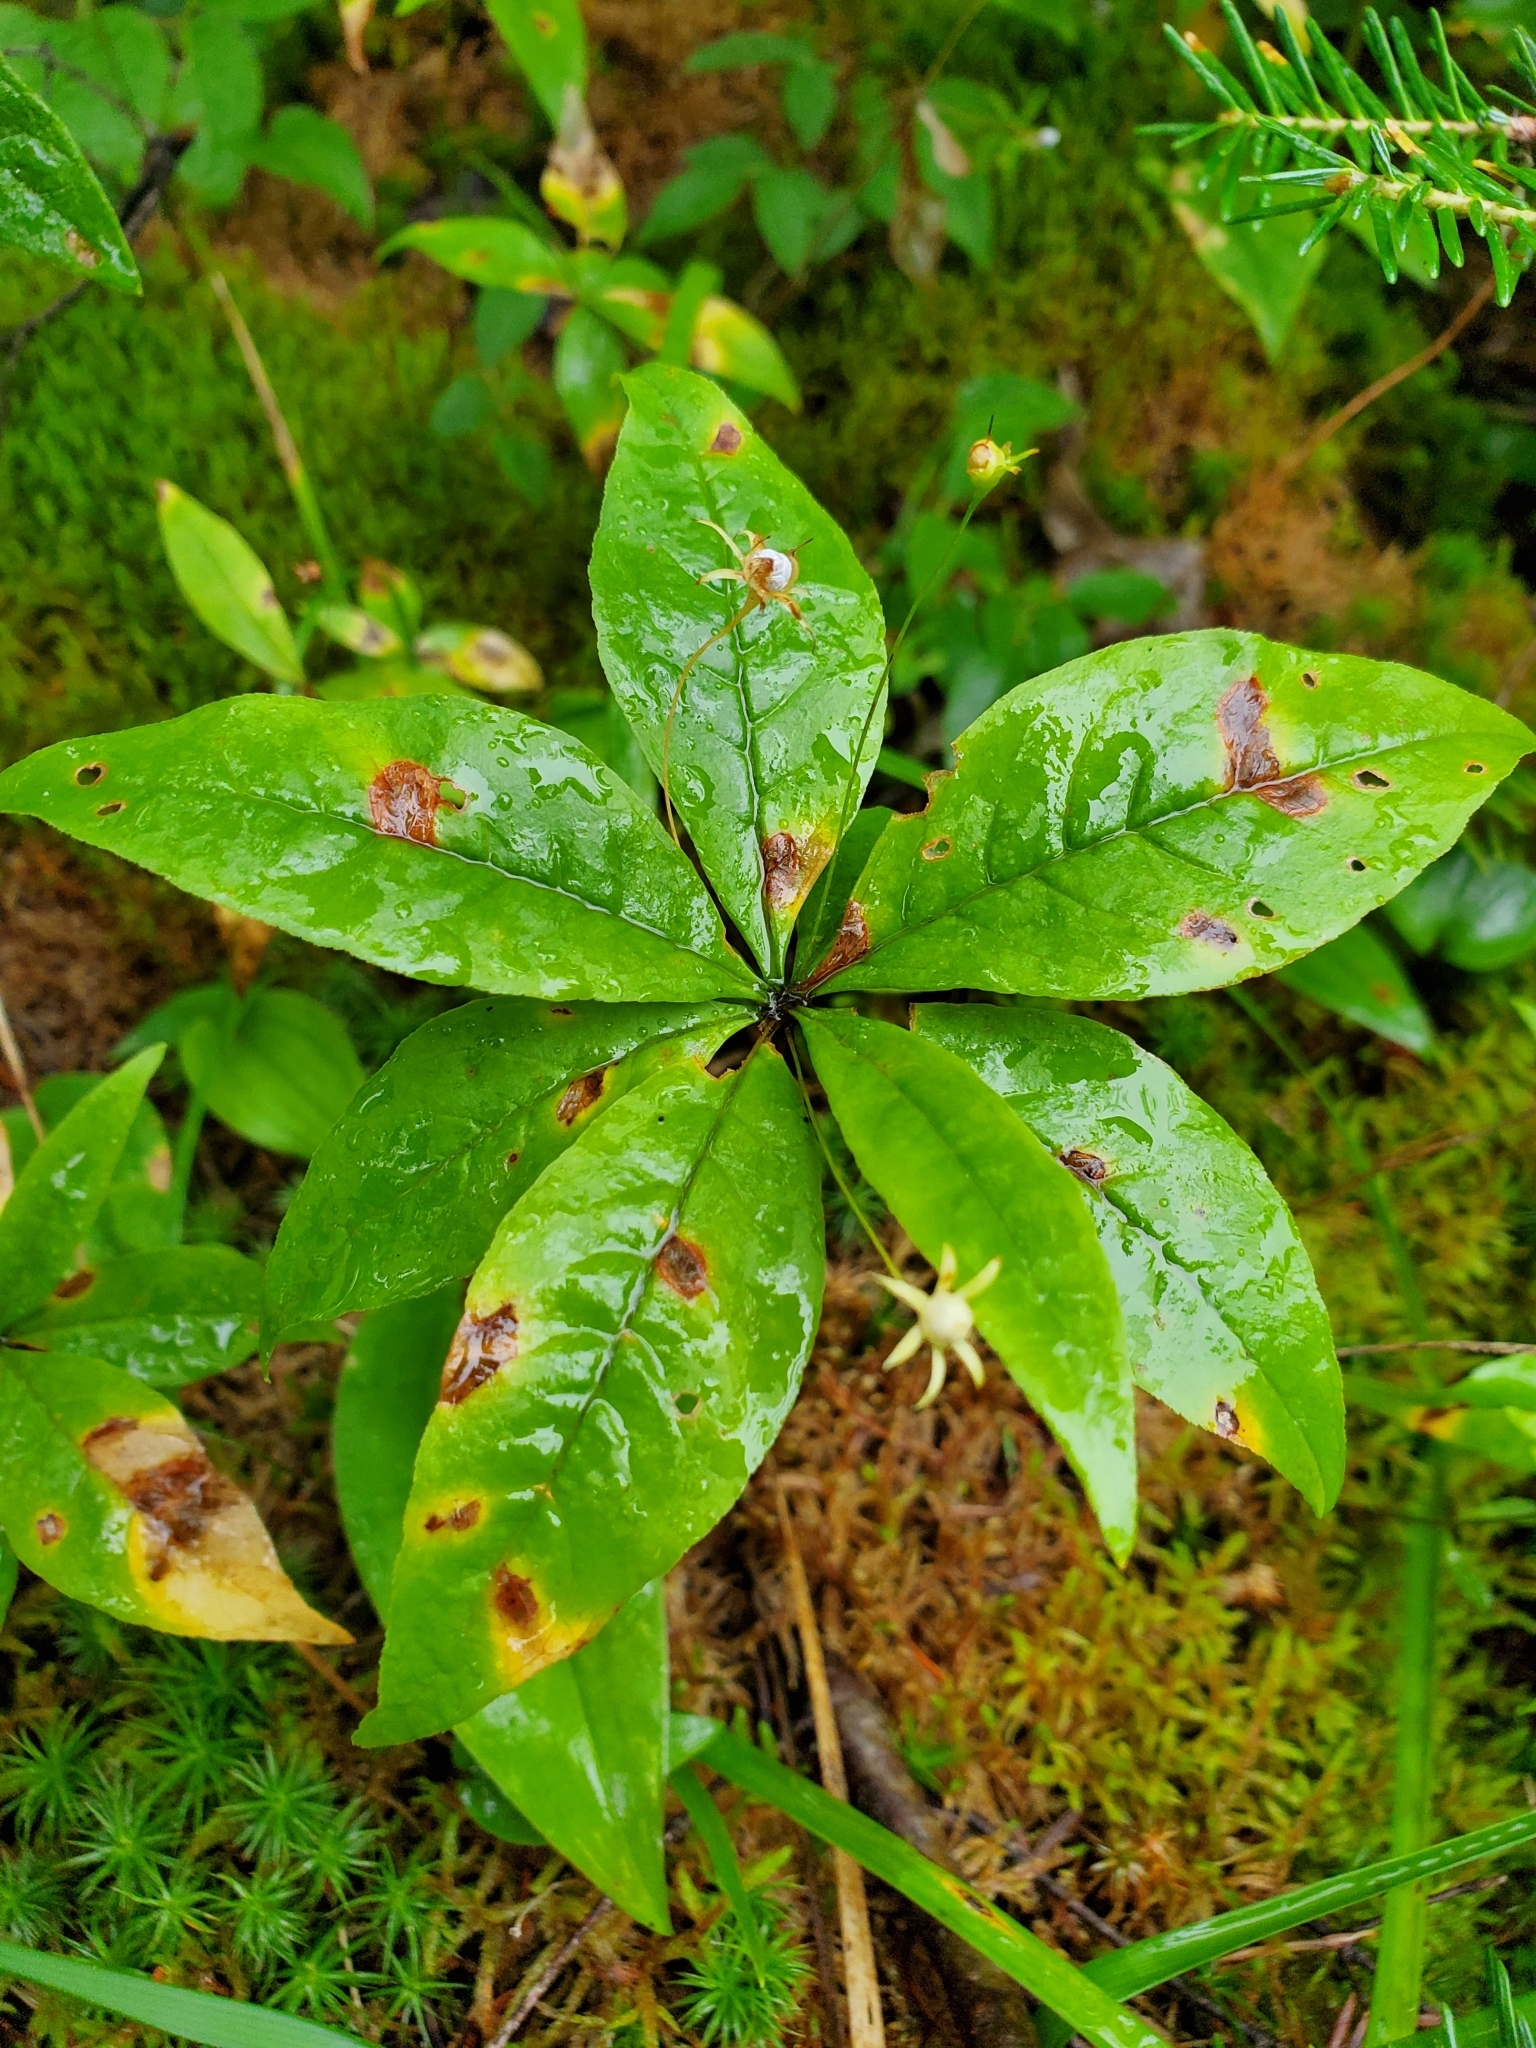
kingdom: Plantae
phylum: Tracheophyta
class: Magnoliopsida
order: Ericales
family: Primulaceae
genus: Lysimachia
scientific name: Lysimachia borealis
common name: American starflower
